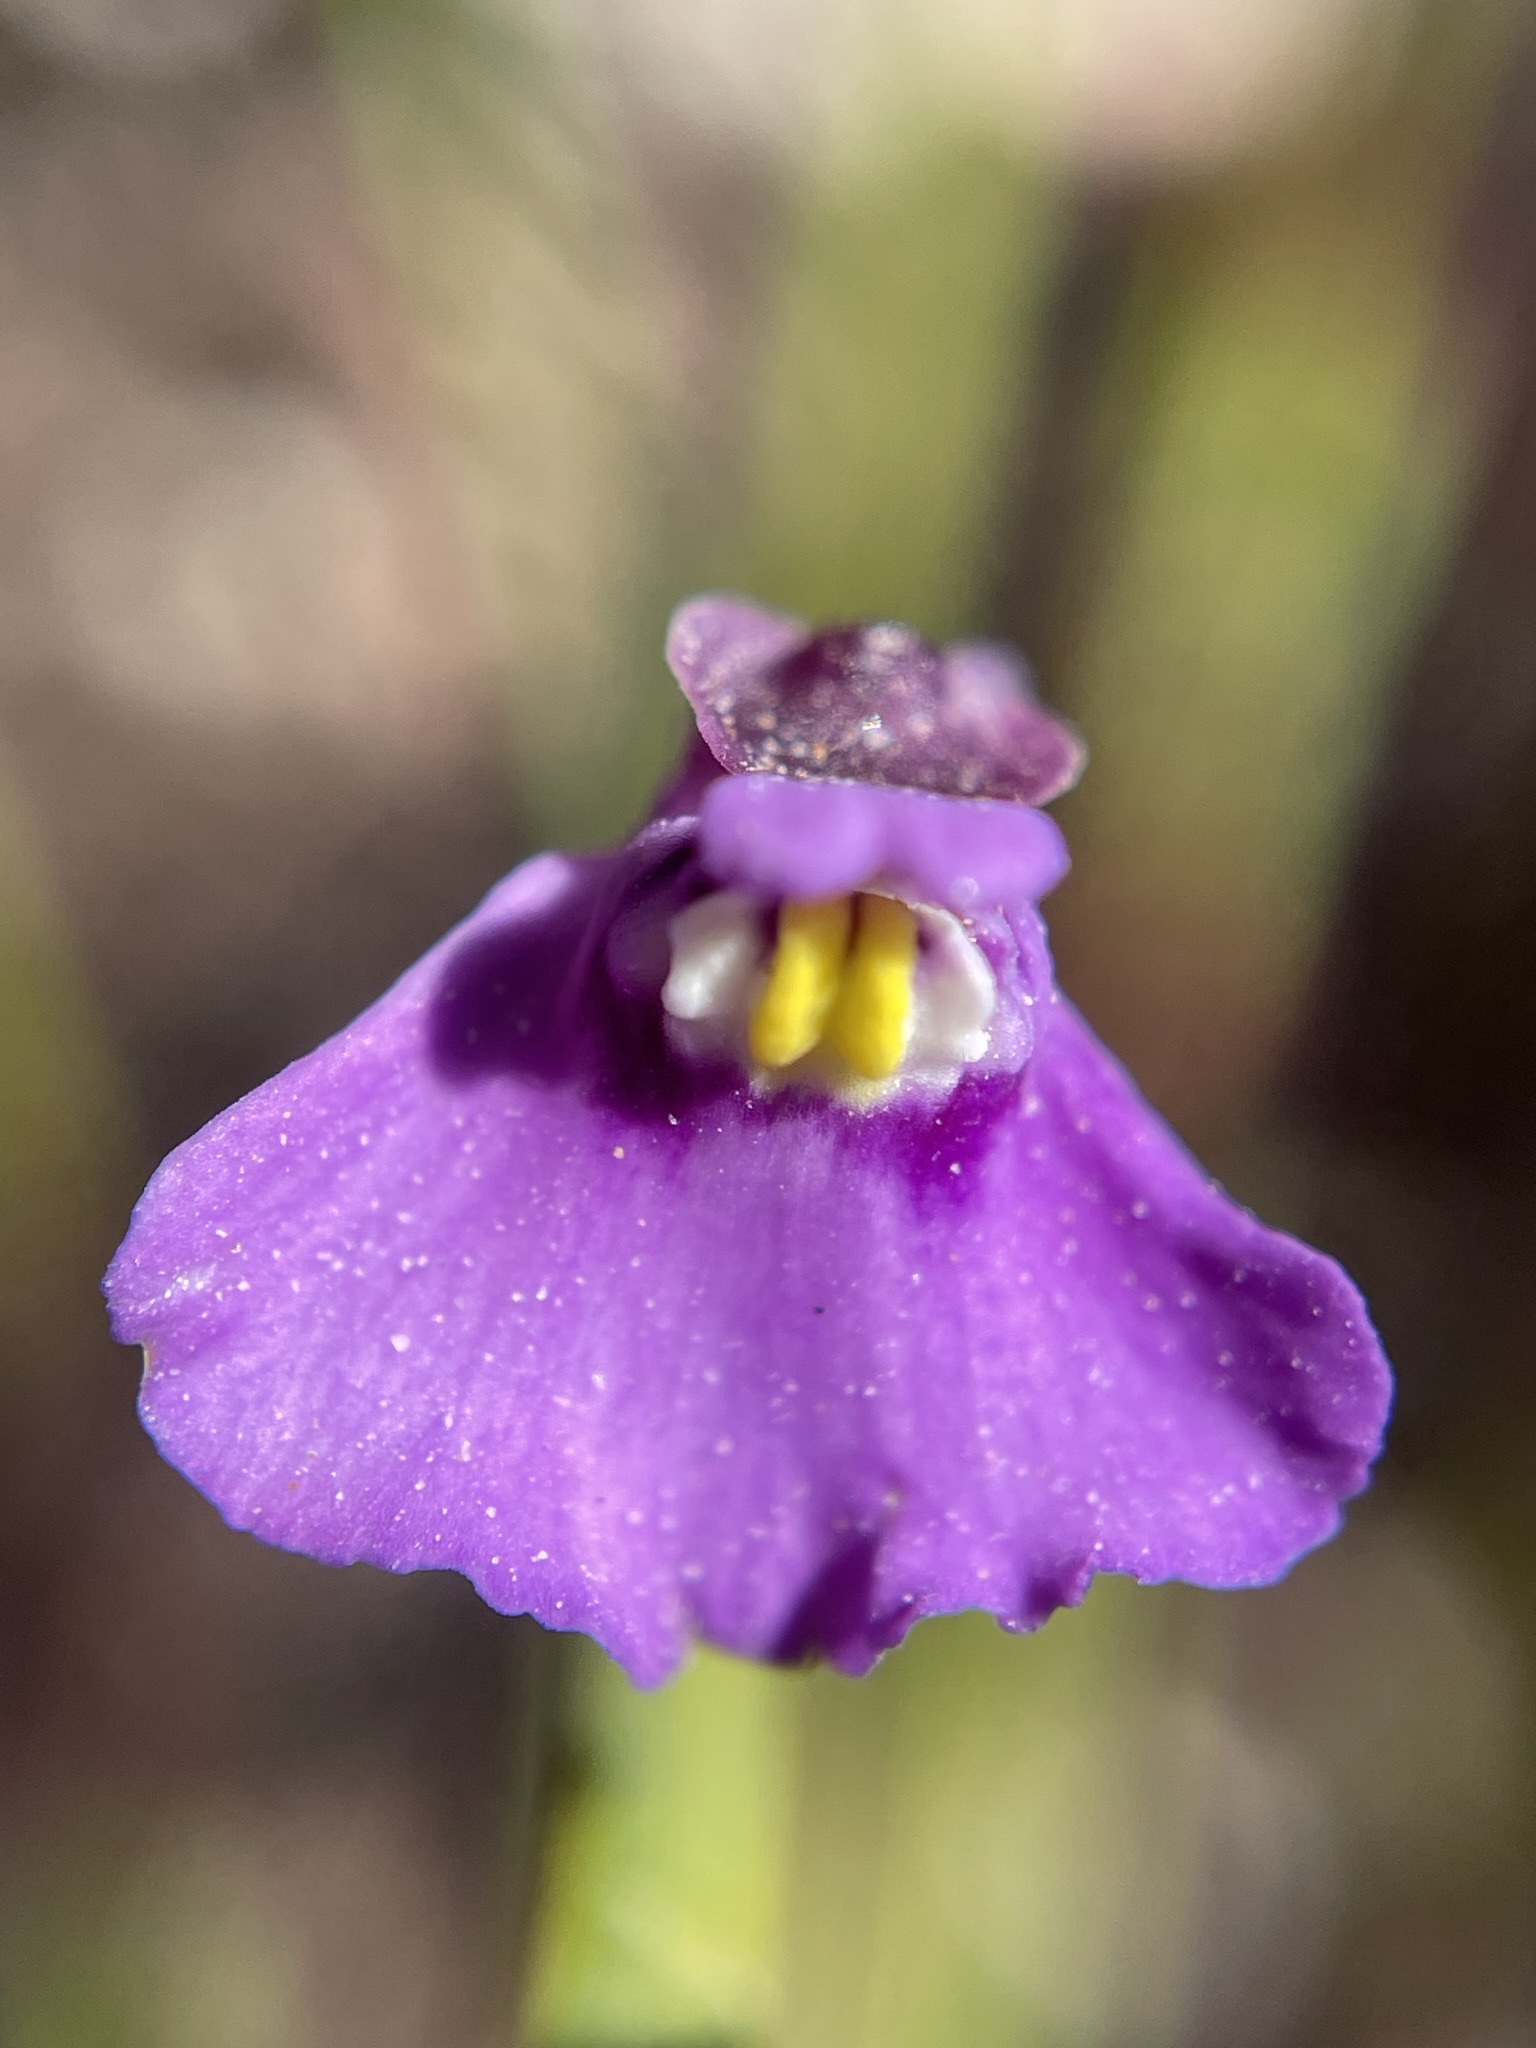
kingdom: Plantae
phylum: Tracheophyta
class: Magnoliopsida
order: Lamiales
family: Lentibulariaceae
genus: Utricularia
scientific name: Utricularia uniflora
